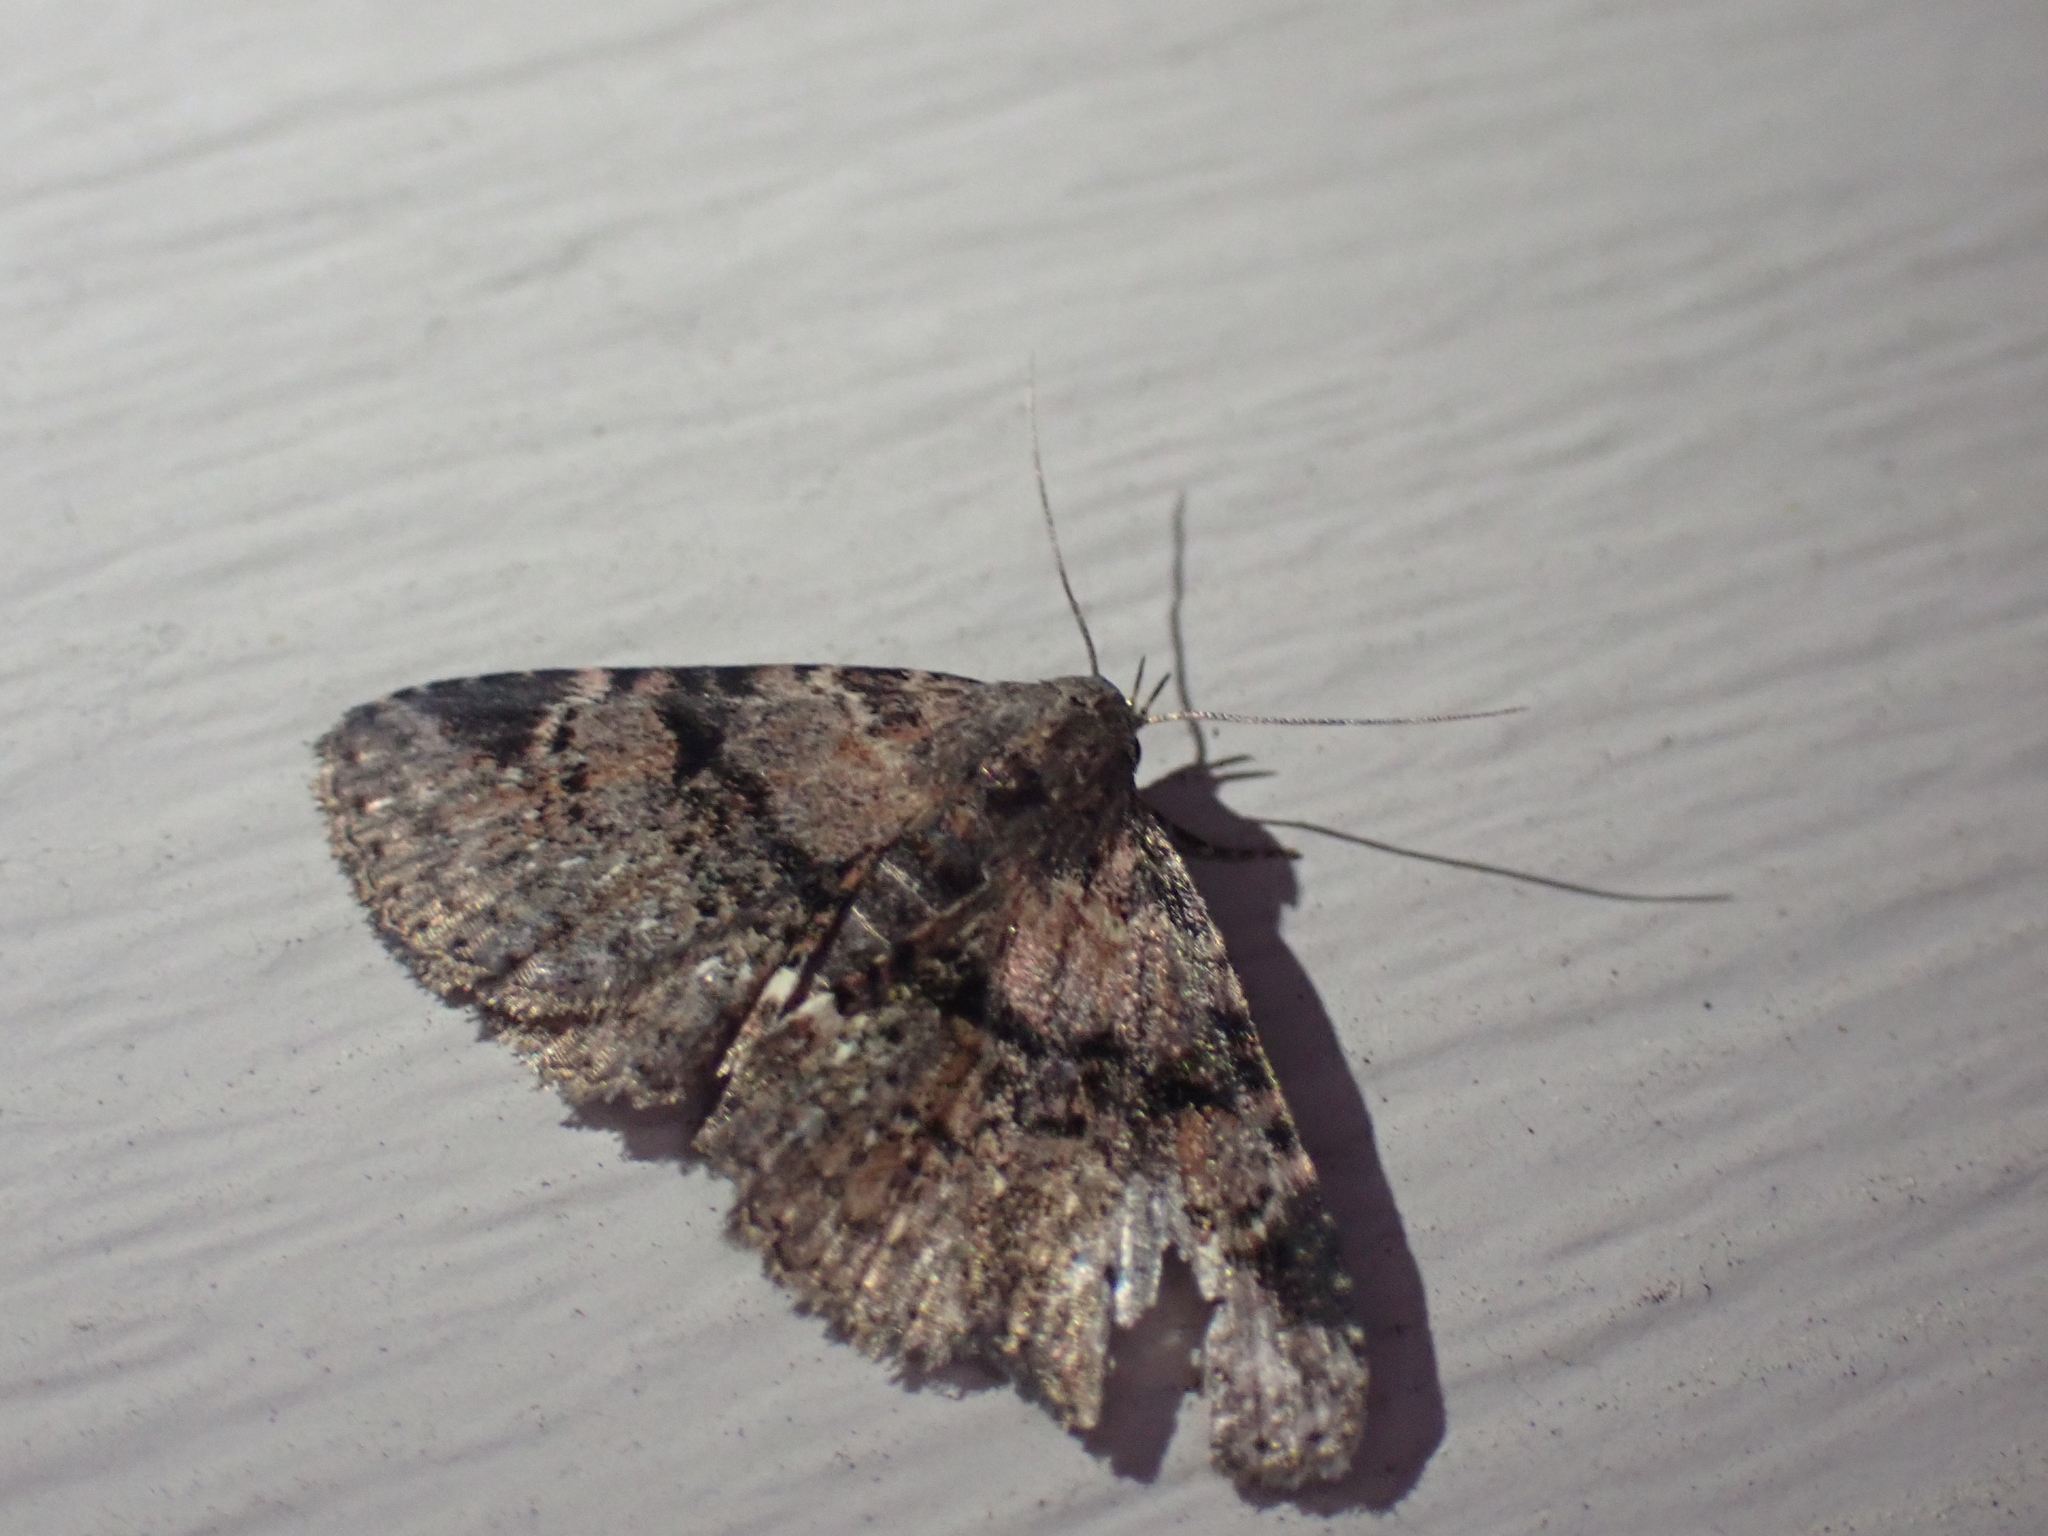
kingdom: Animalia
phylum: Arthropoda
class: Insecta
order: Lepidoptera
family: Erebidae
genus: Metalectra
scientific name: Metalectra quadrisignata
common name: Four-spotted fungus moth
